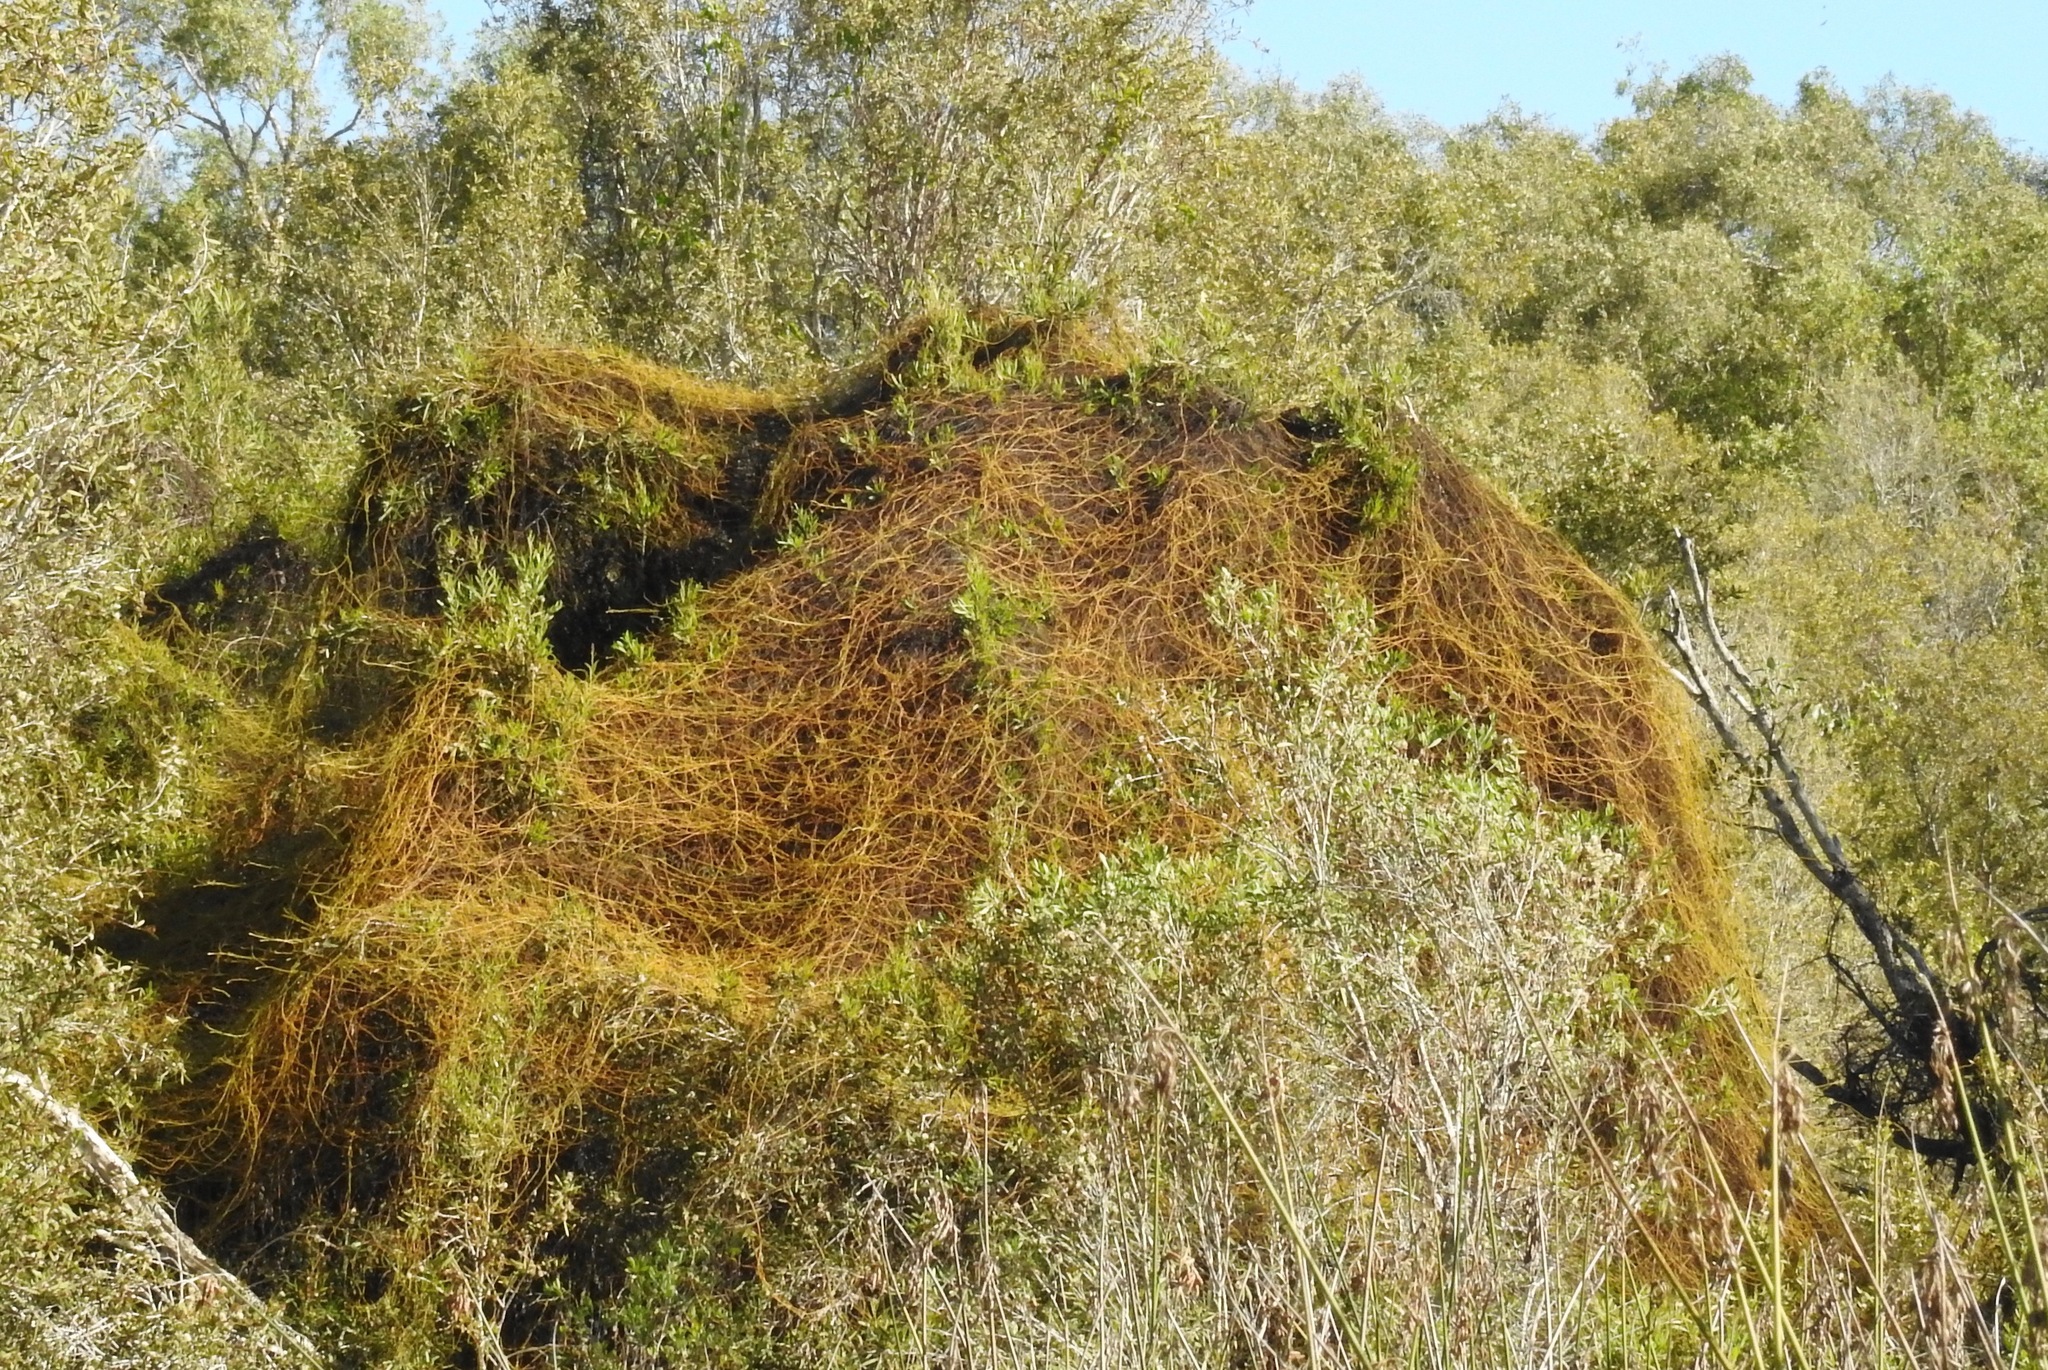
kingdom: Plantae
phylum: Tracheophyta
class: Magnoliopsida
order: Laurales
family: Lauraceae
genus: Cassytha
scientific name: Cassytha filiformis
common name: Dodder-laurel
